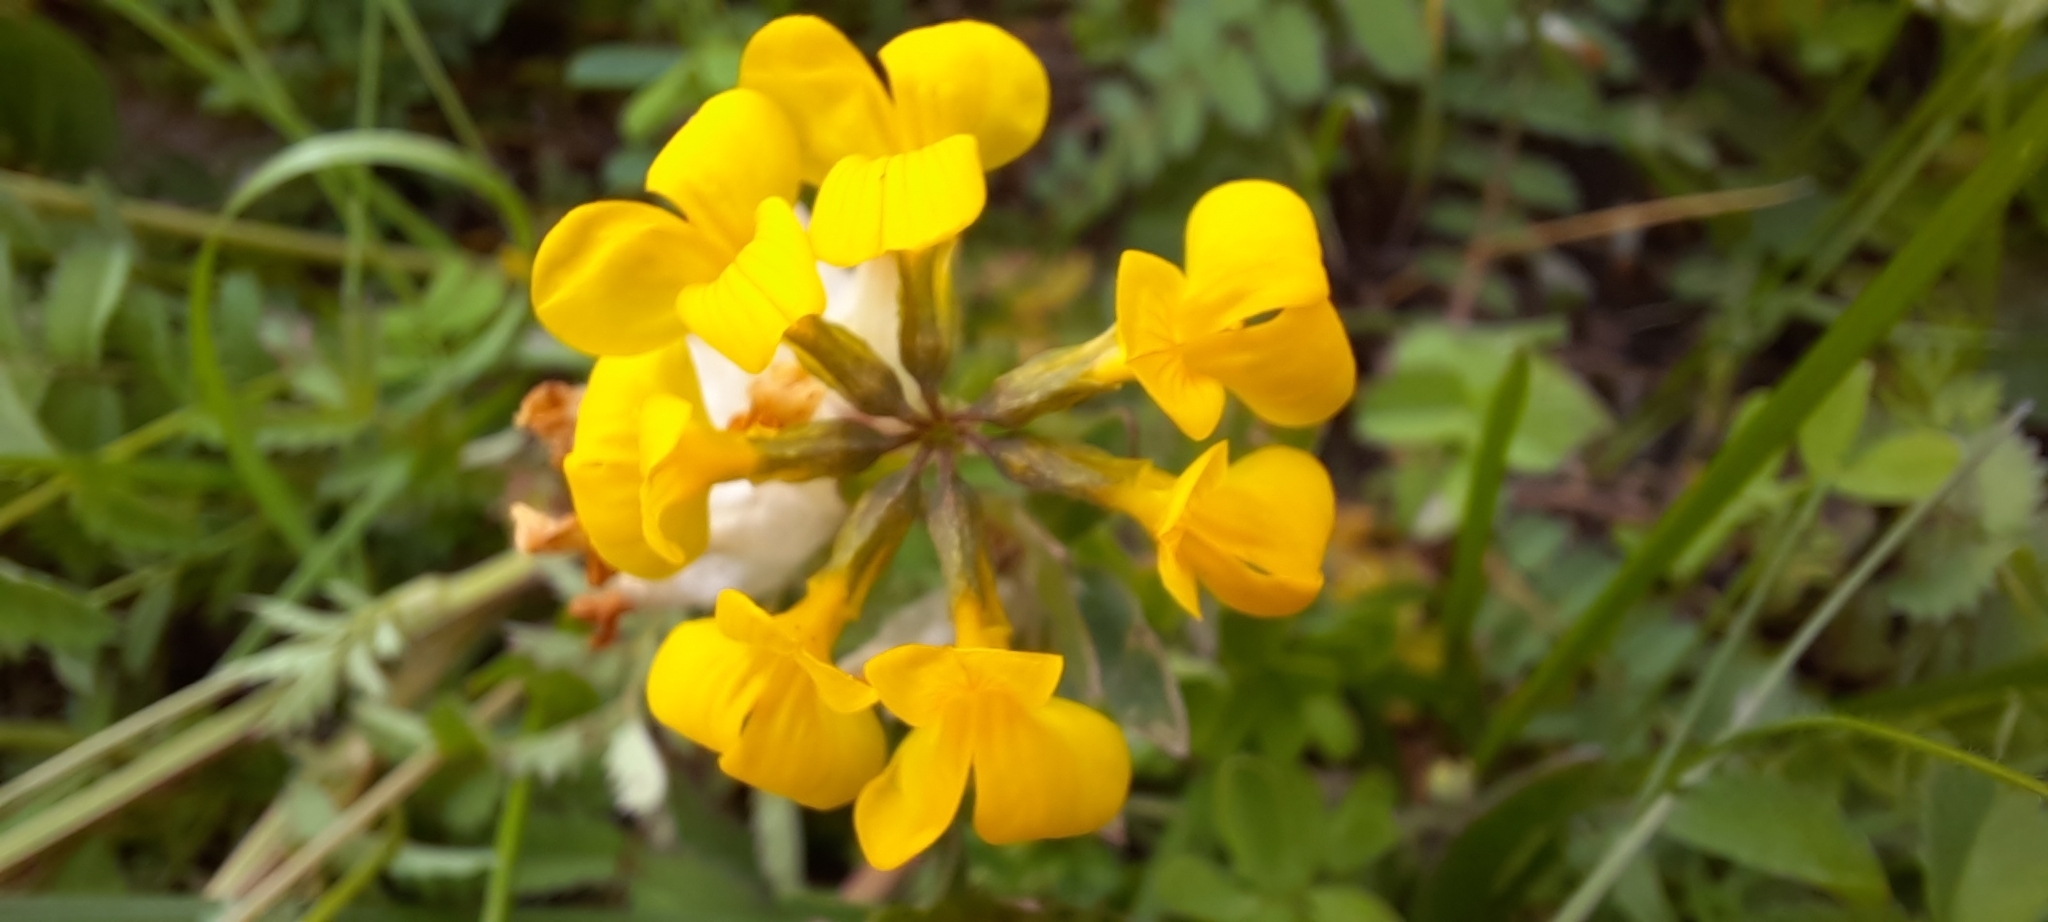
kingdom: Plantae
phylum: Tracheophyta
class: Magnoliopsida
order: Fabales
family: Fabaceae
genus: Hippocrepis
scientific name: Hippocrepis comosa
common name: Horseshoe vetch
